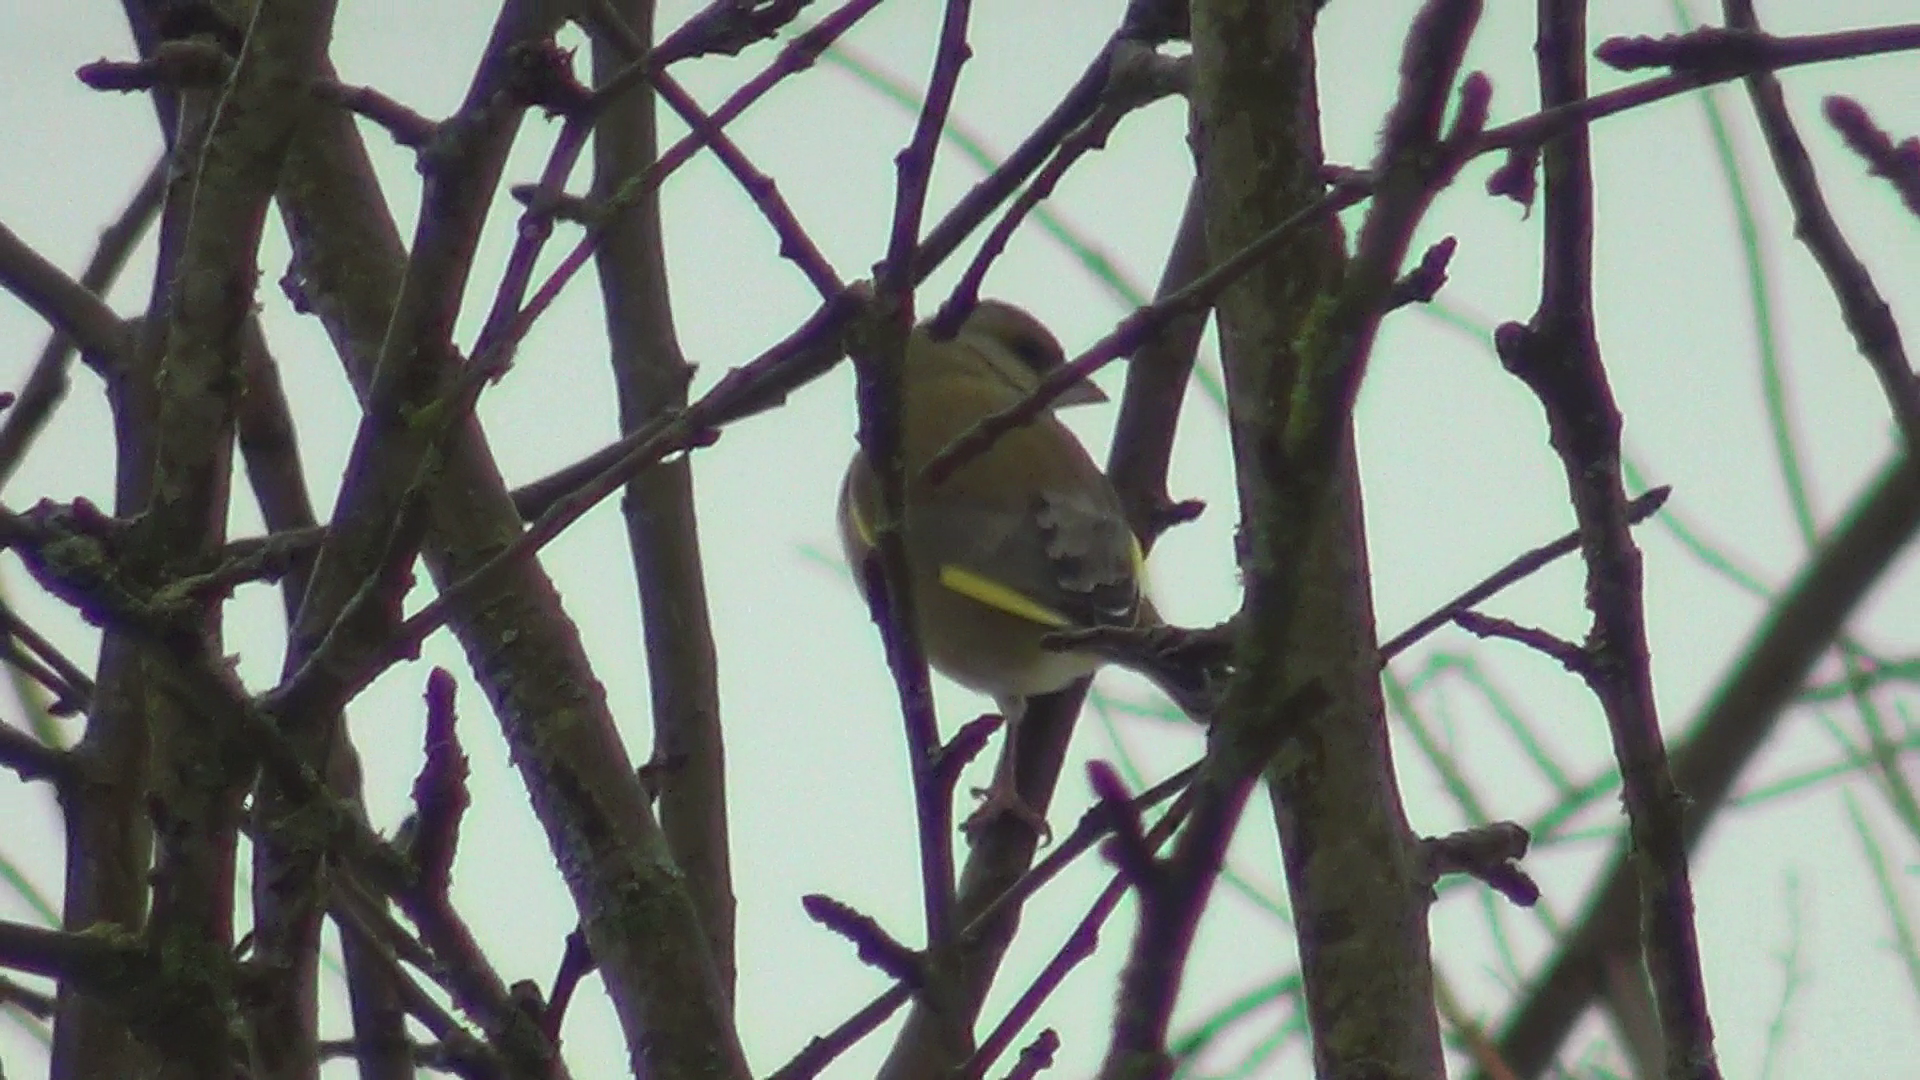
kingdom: Plantae
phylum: Tracheophyta
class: Liliopsida
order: Poales
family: Poaceae
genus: Chloris
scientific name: Chloris chloris
